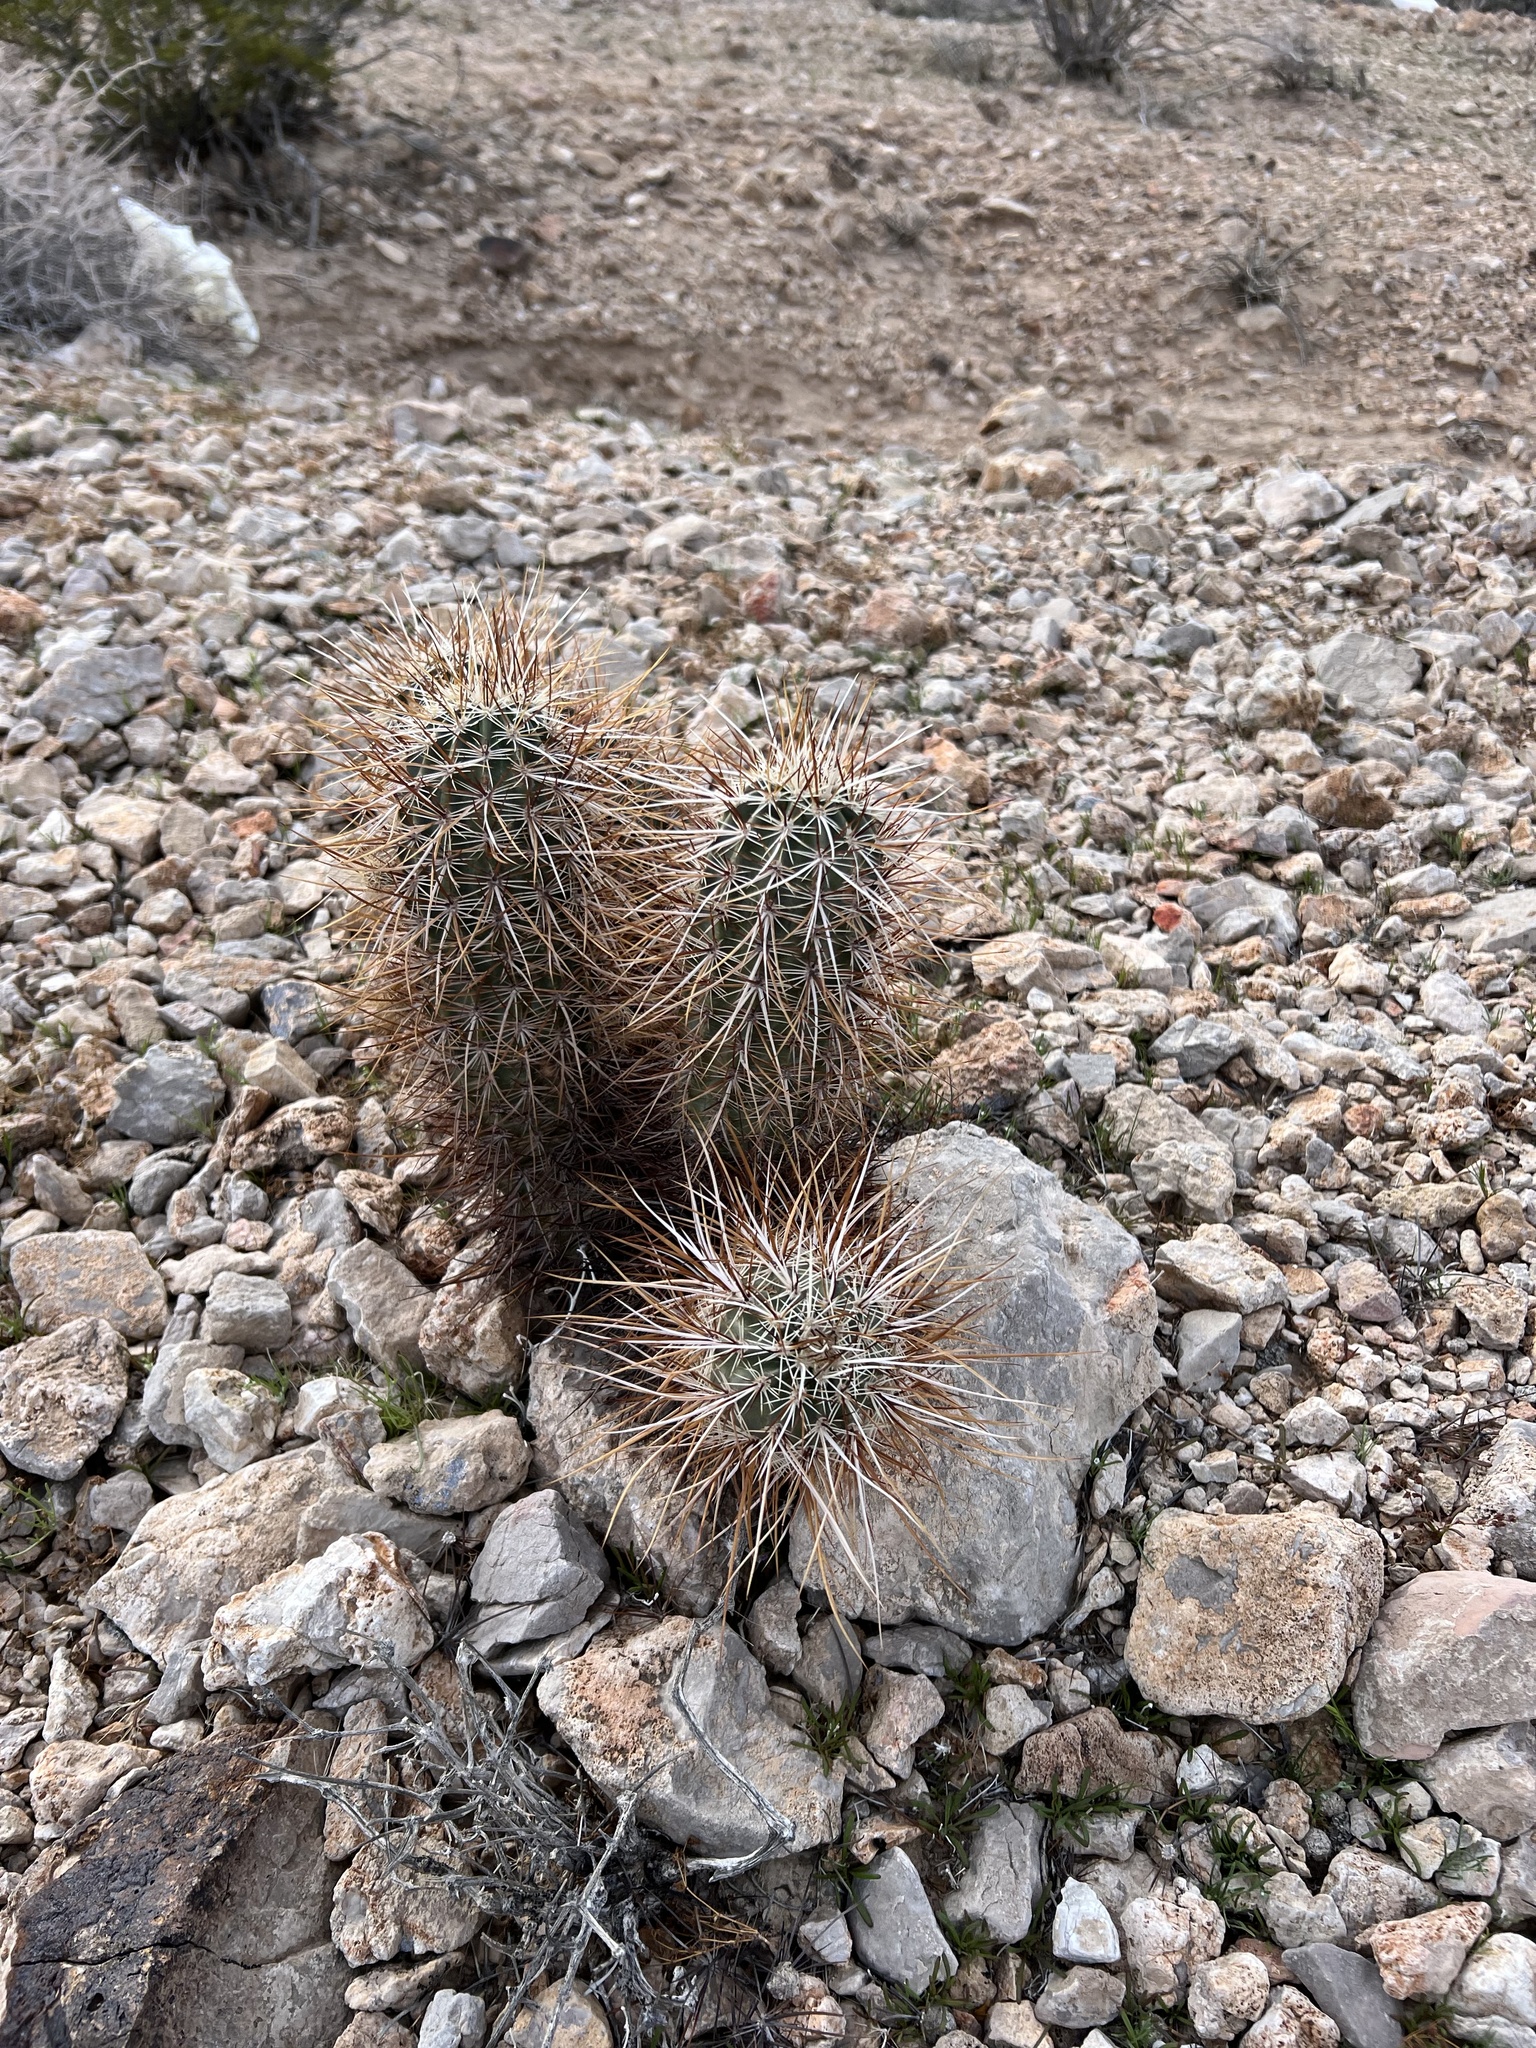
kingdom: Plantae
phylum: Tracheophyta
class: Magnoliopsida
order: Caryophyllales
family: Cactaceae
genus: Echinocereus
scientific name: Echinocereus engelmannii
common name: Engelmann's hedgehog cactus
